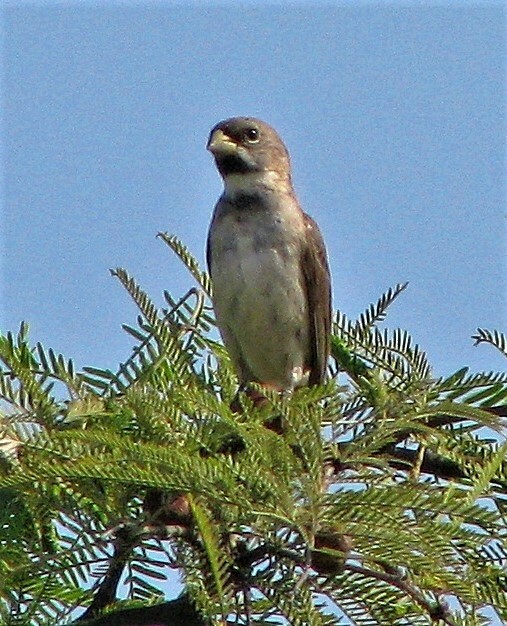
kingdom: Animalia
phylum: Chordata
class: Aves
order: Passeriformes
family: Thraupidae
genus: Sporophila
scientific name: Sporophila caerulescens
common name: Double-collared seedeater
